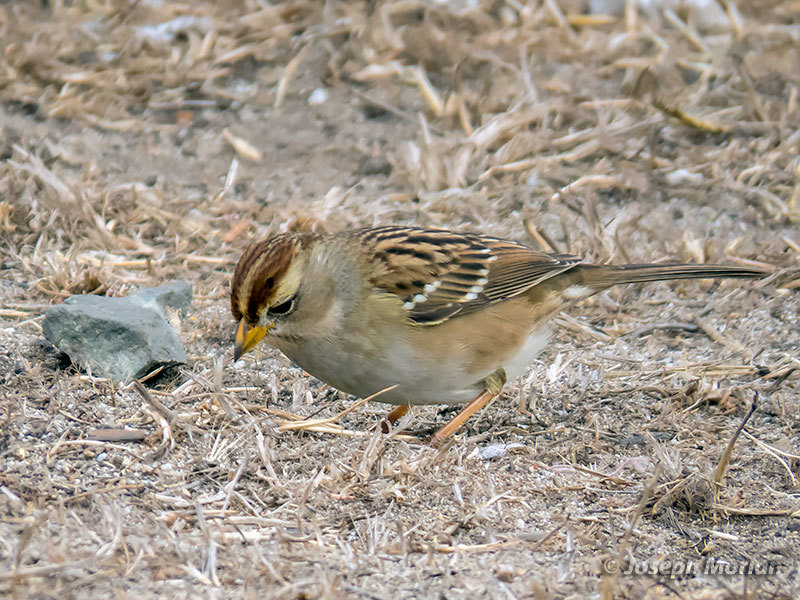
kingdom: Animalia
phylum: Chordata
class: Aves
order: Passeriformes
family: Passerellidae
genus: Zonotrichia
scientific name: Zonotrichia leucophrys
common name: White-crowned sparrow
